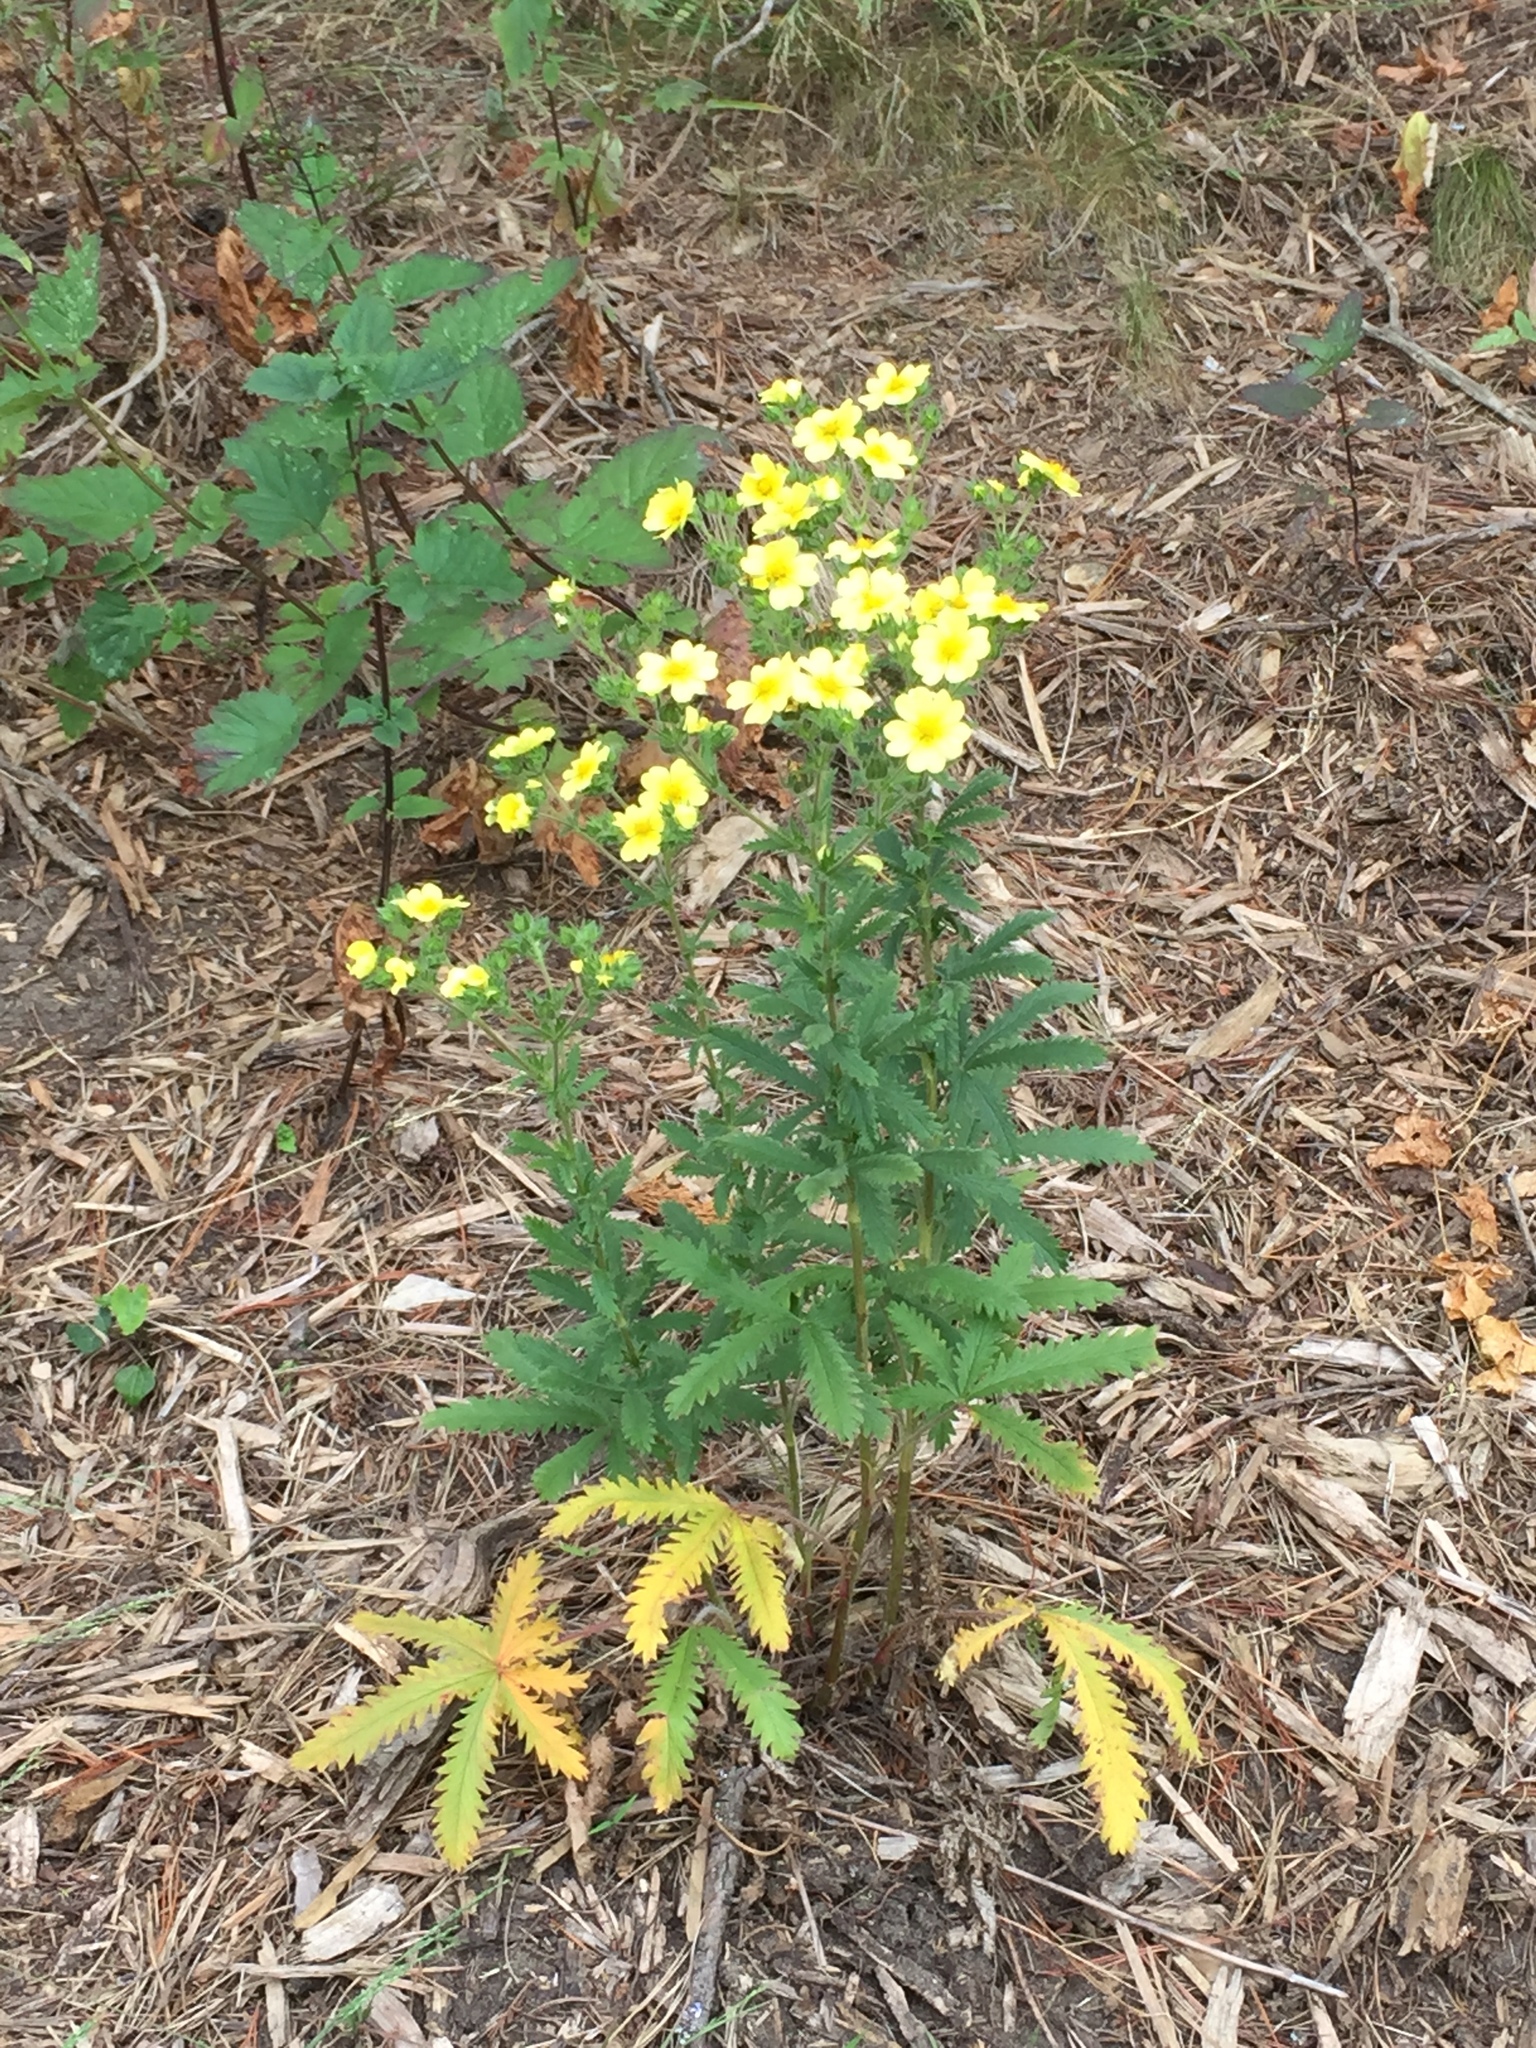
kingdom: Plantae
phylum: Tracheophyta
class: Magnoliopsida
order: Rosales
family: Rosaceae
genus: Potentilla
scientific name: Potentilla recta
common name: Sulphur cinquefoil
